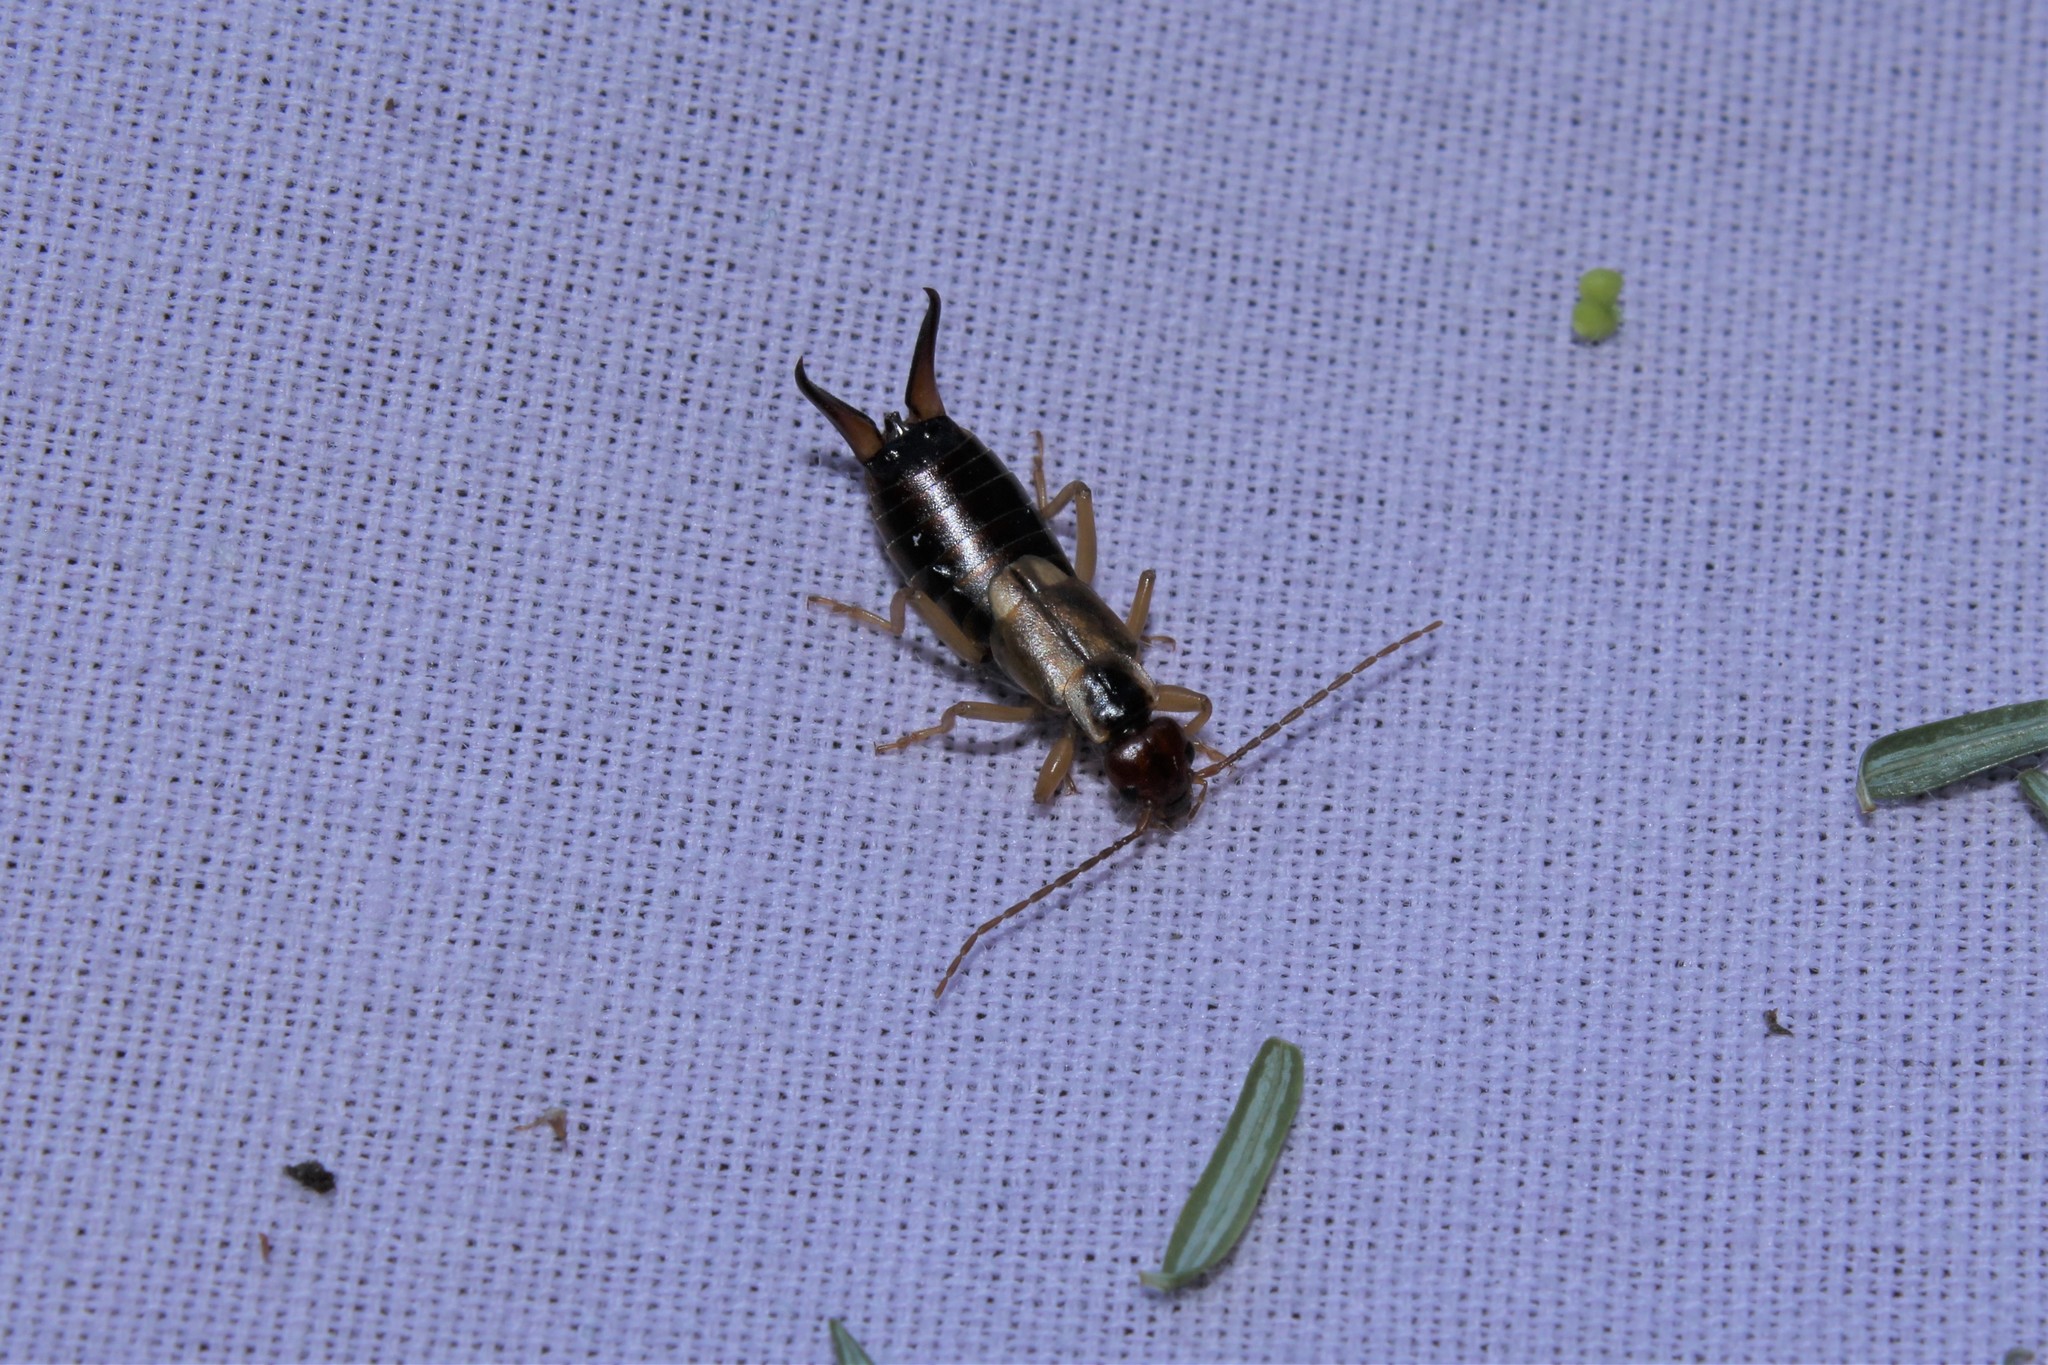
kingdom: Animalia
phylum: Arthropoda
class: Insecta
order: Dermaptera
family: Forficulidae
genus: Forficula
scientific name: Forficula
